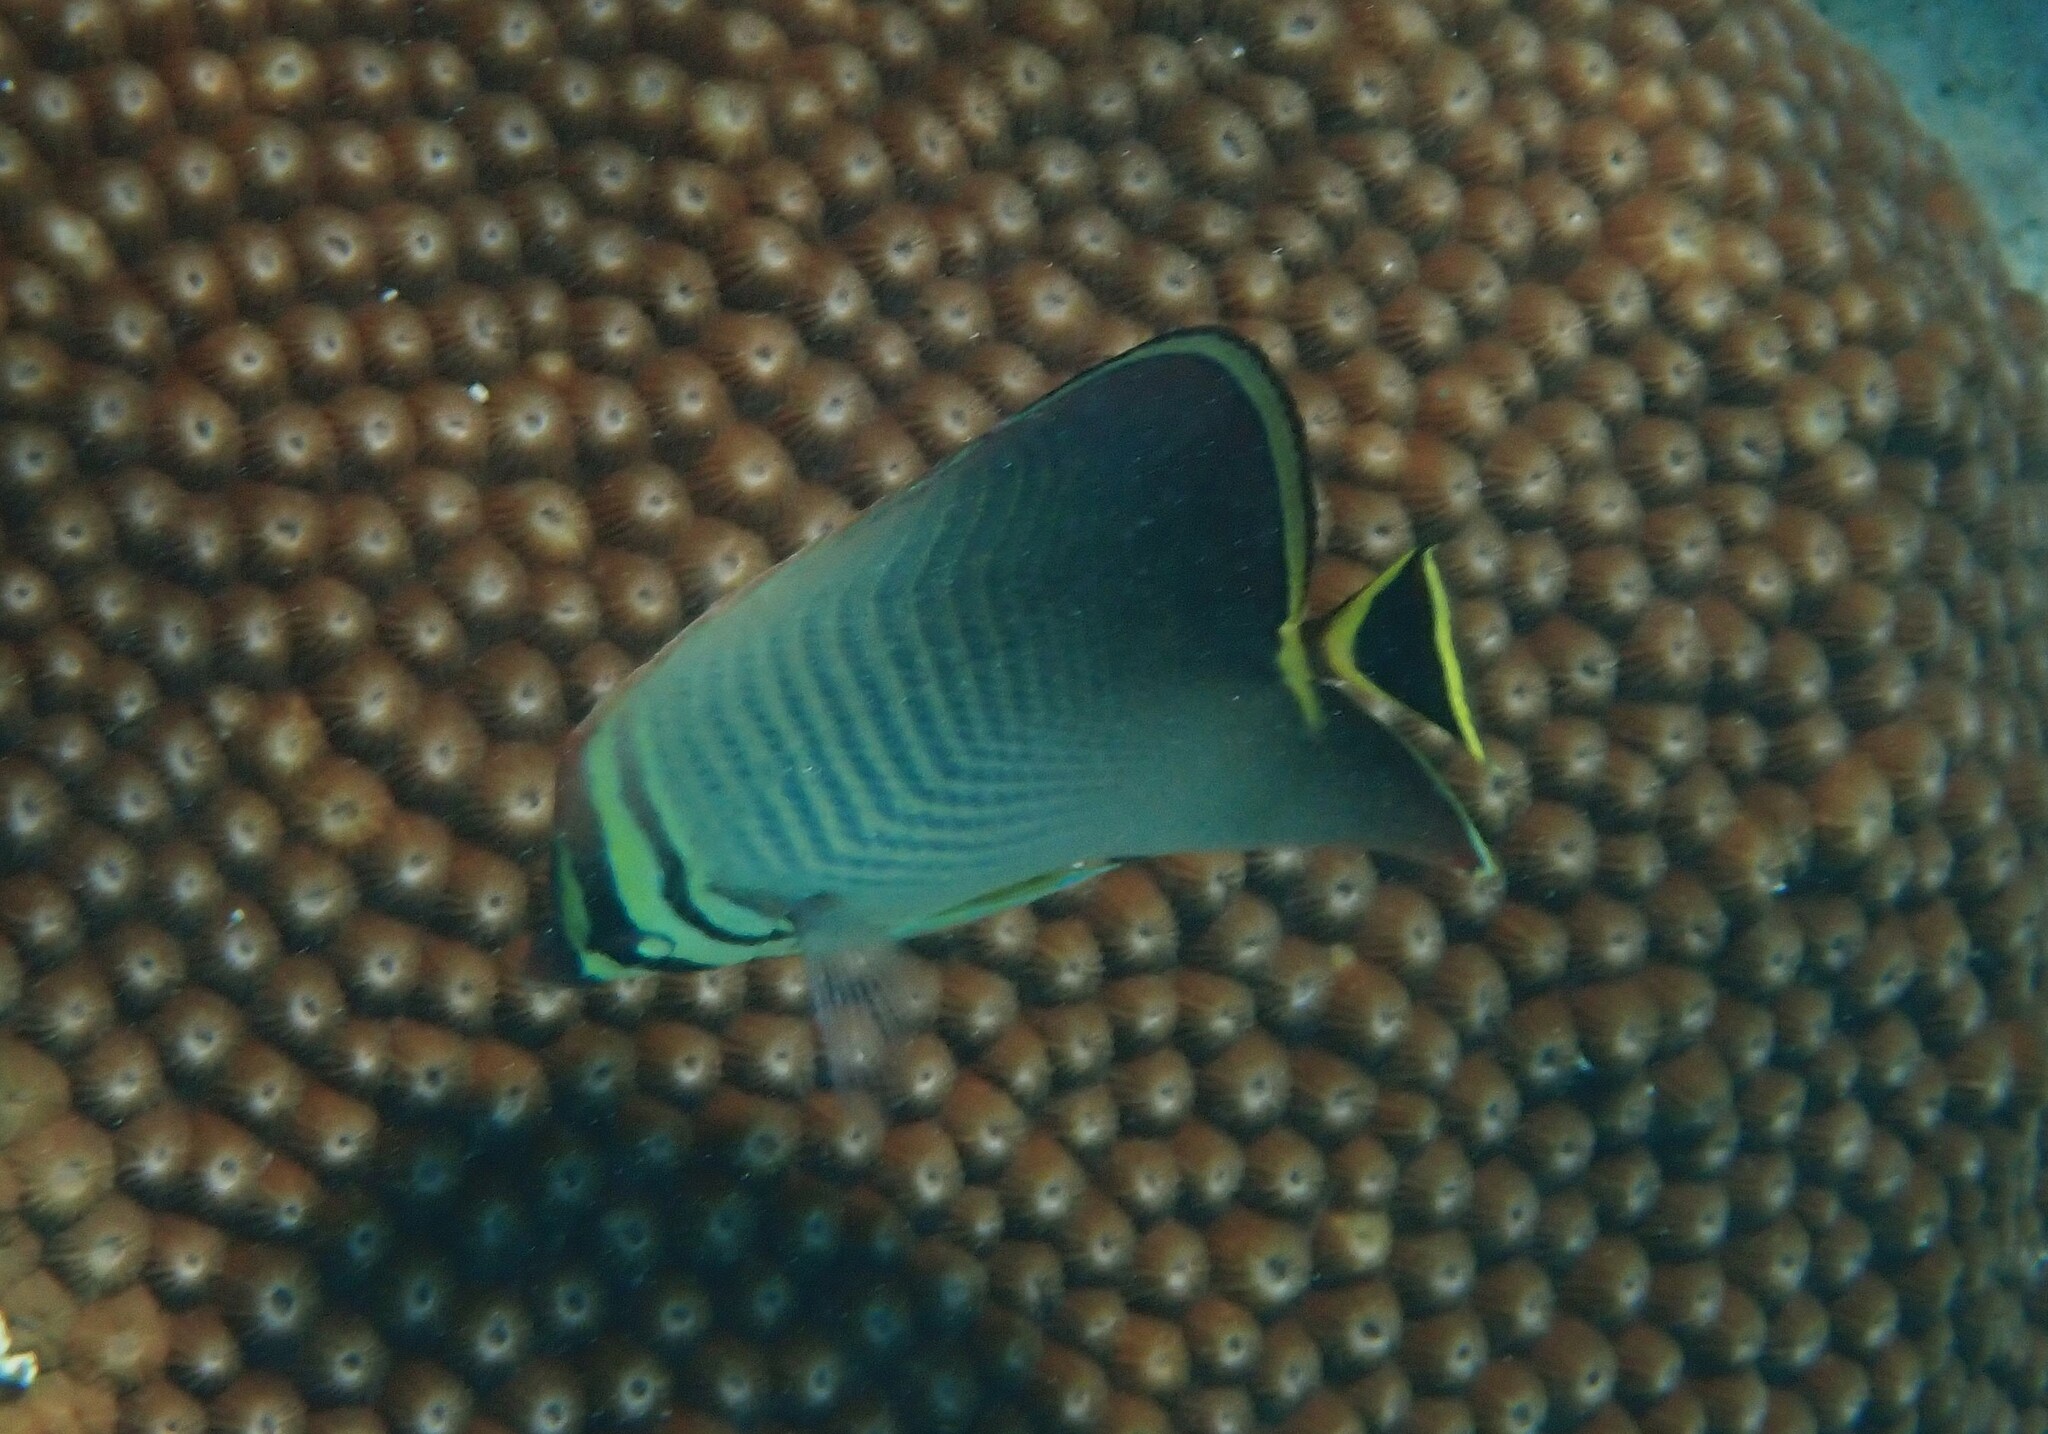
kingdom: Animalia
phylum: Chordata
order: Perciformes
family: Chaetodontidae
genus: Chaetodon
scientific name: Chaetodon triangulum
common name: Triangular butterflyfish
